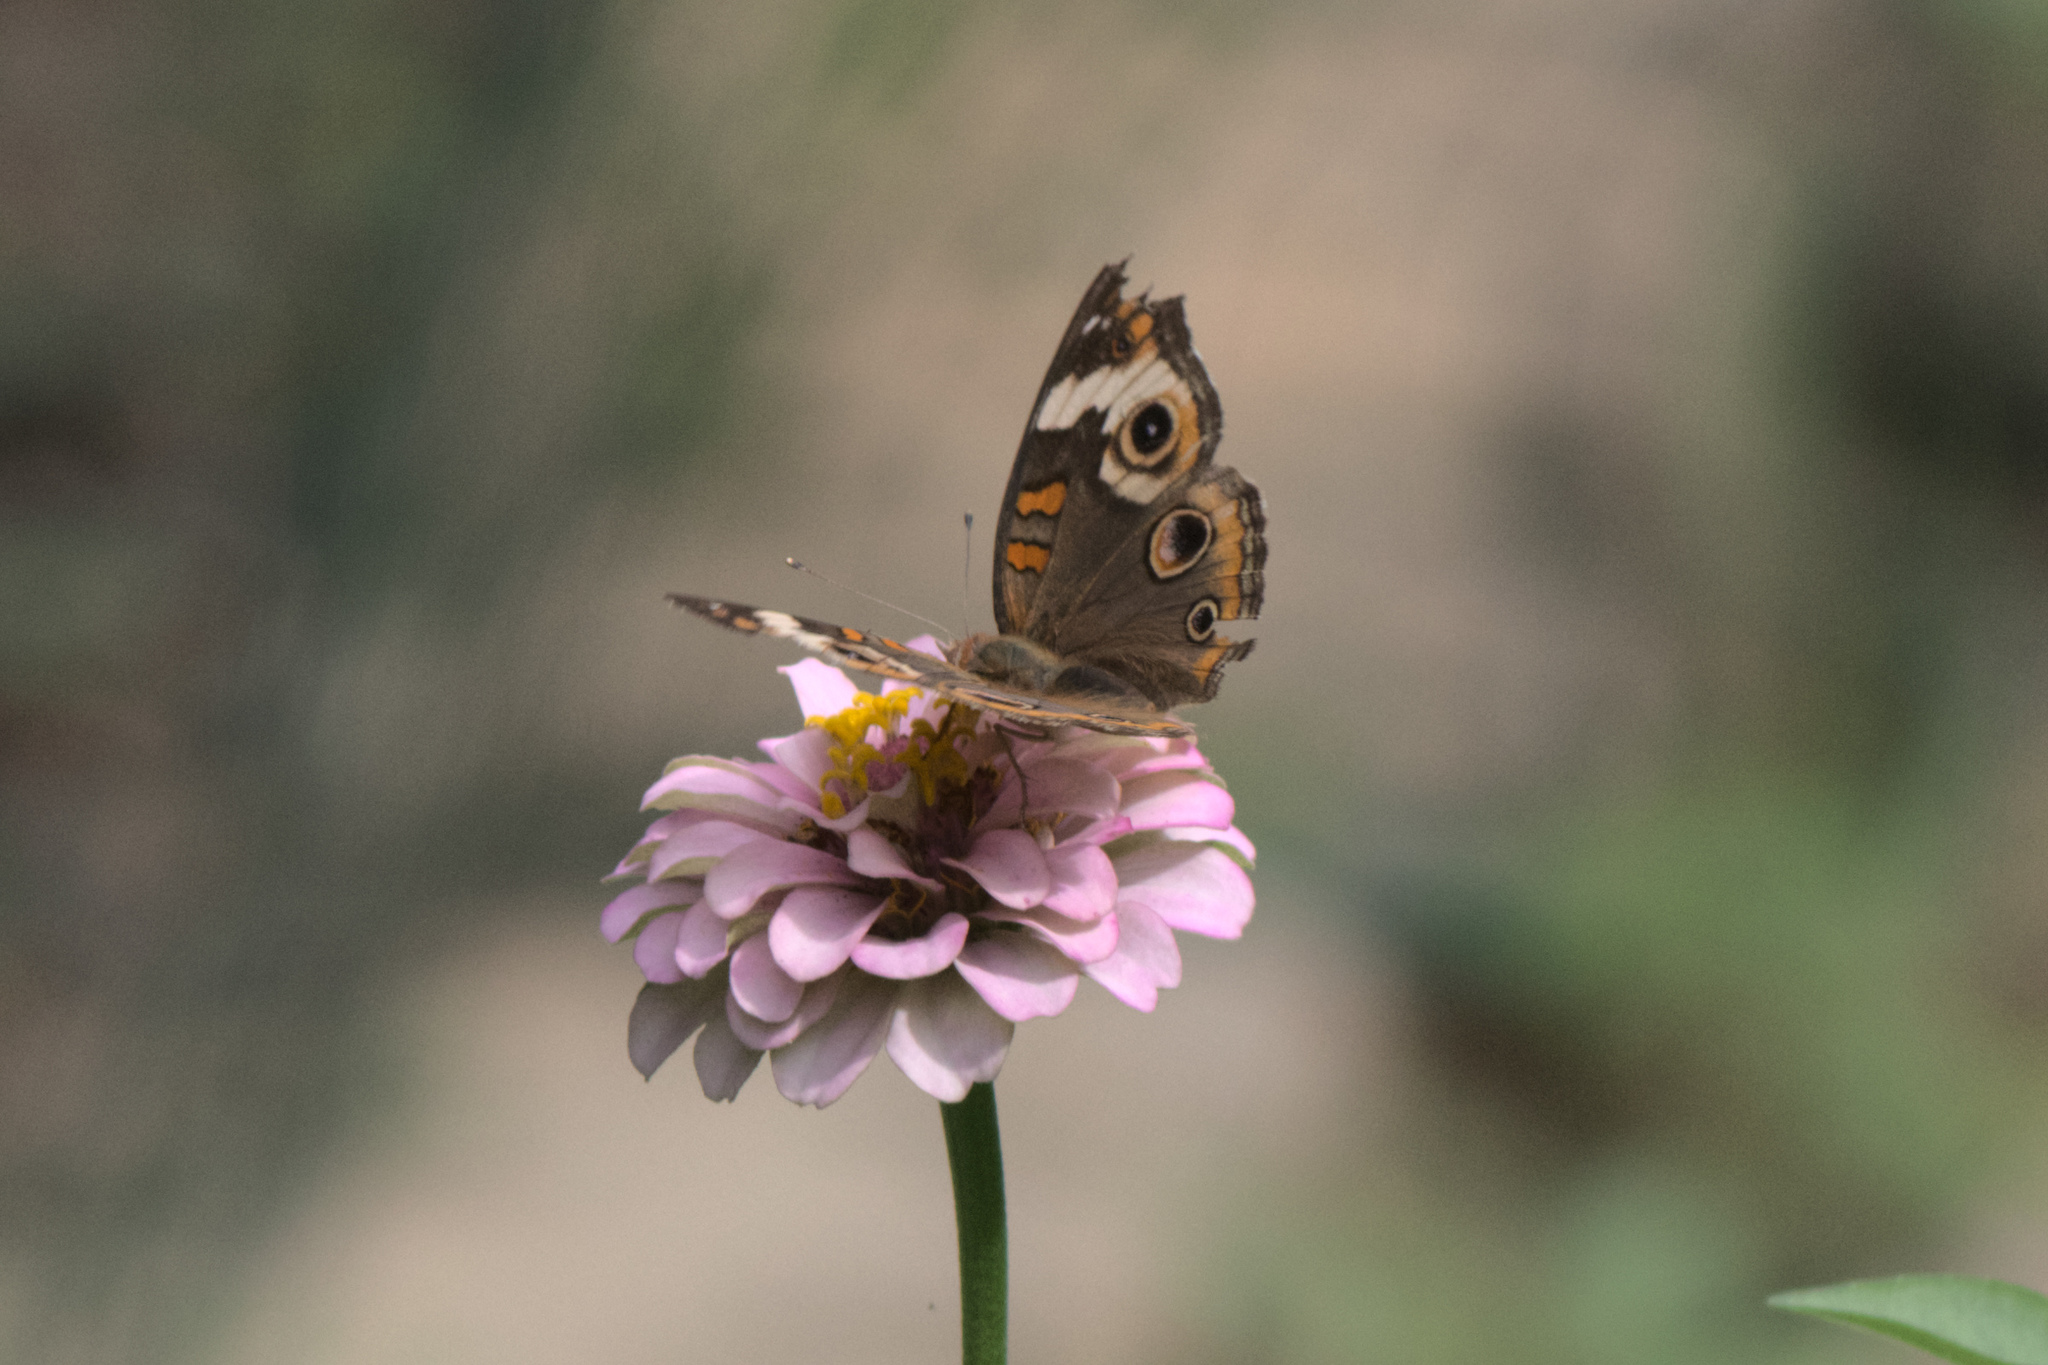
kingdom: Animalia
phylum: Arthropoda
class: Insecta
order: Lepidoptera
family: Nymphalidae
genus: Junonia
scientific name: Junonia coenia
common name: Common buckeye
